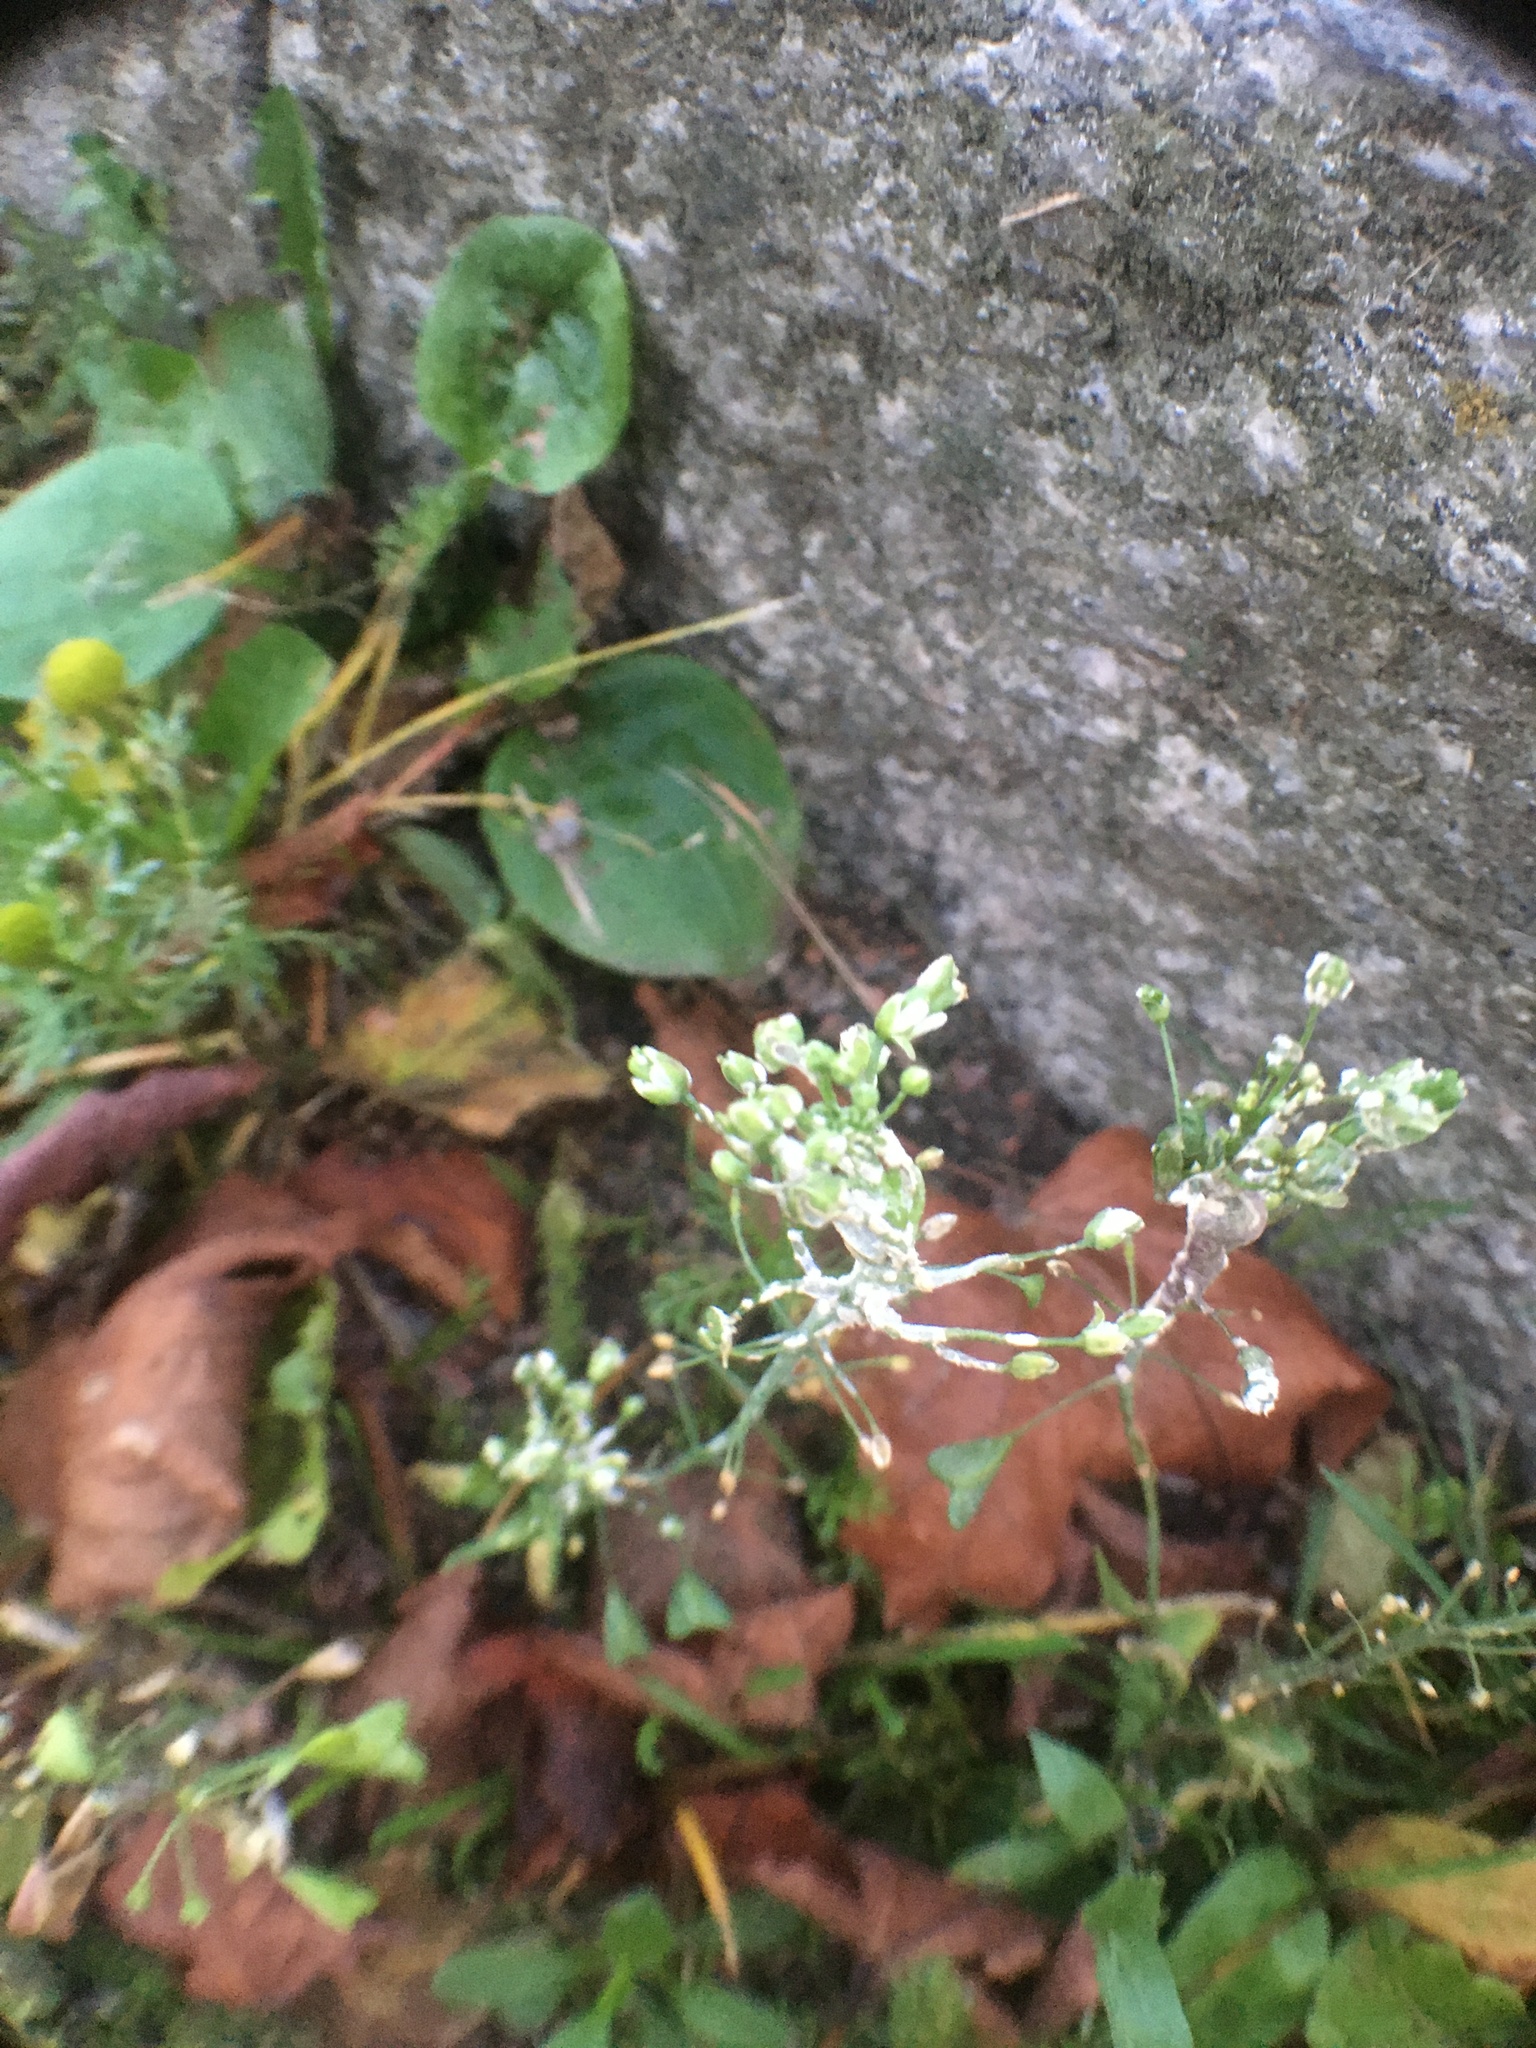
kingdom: Plantae
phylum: Tracheophyta
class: Magnoliopsida
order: Brassicales
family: Brassicaceae
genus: Capsella
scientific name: Capsella bursa-pastoris
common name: Shepherd's purse
